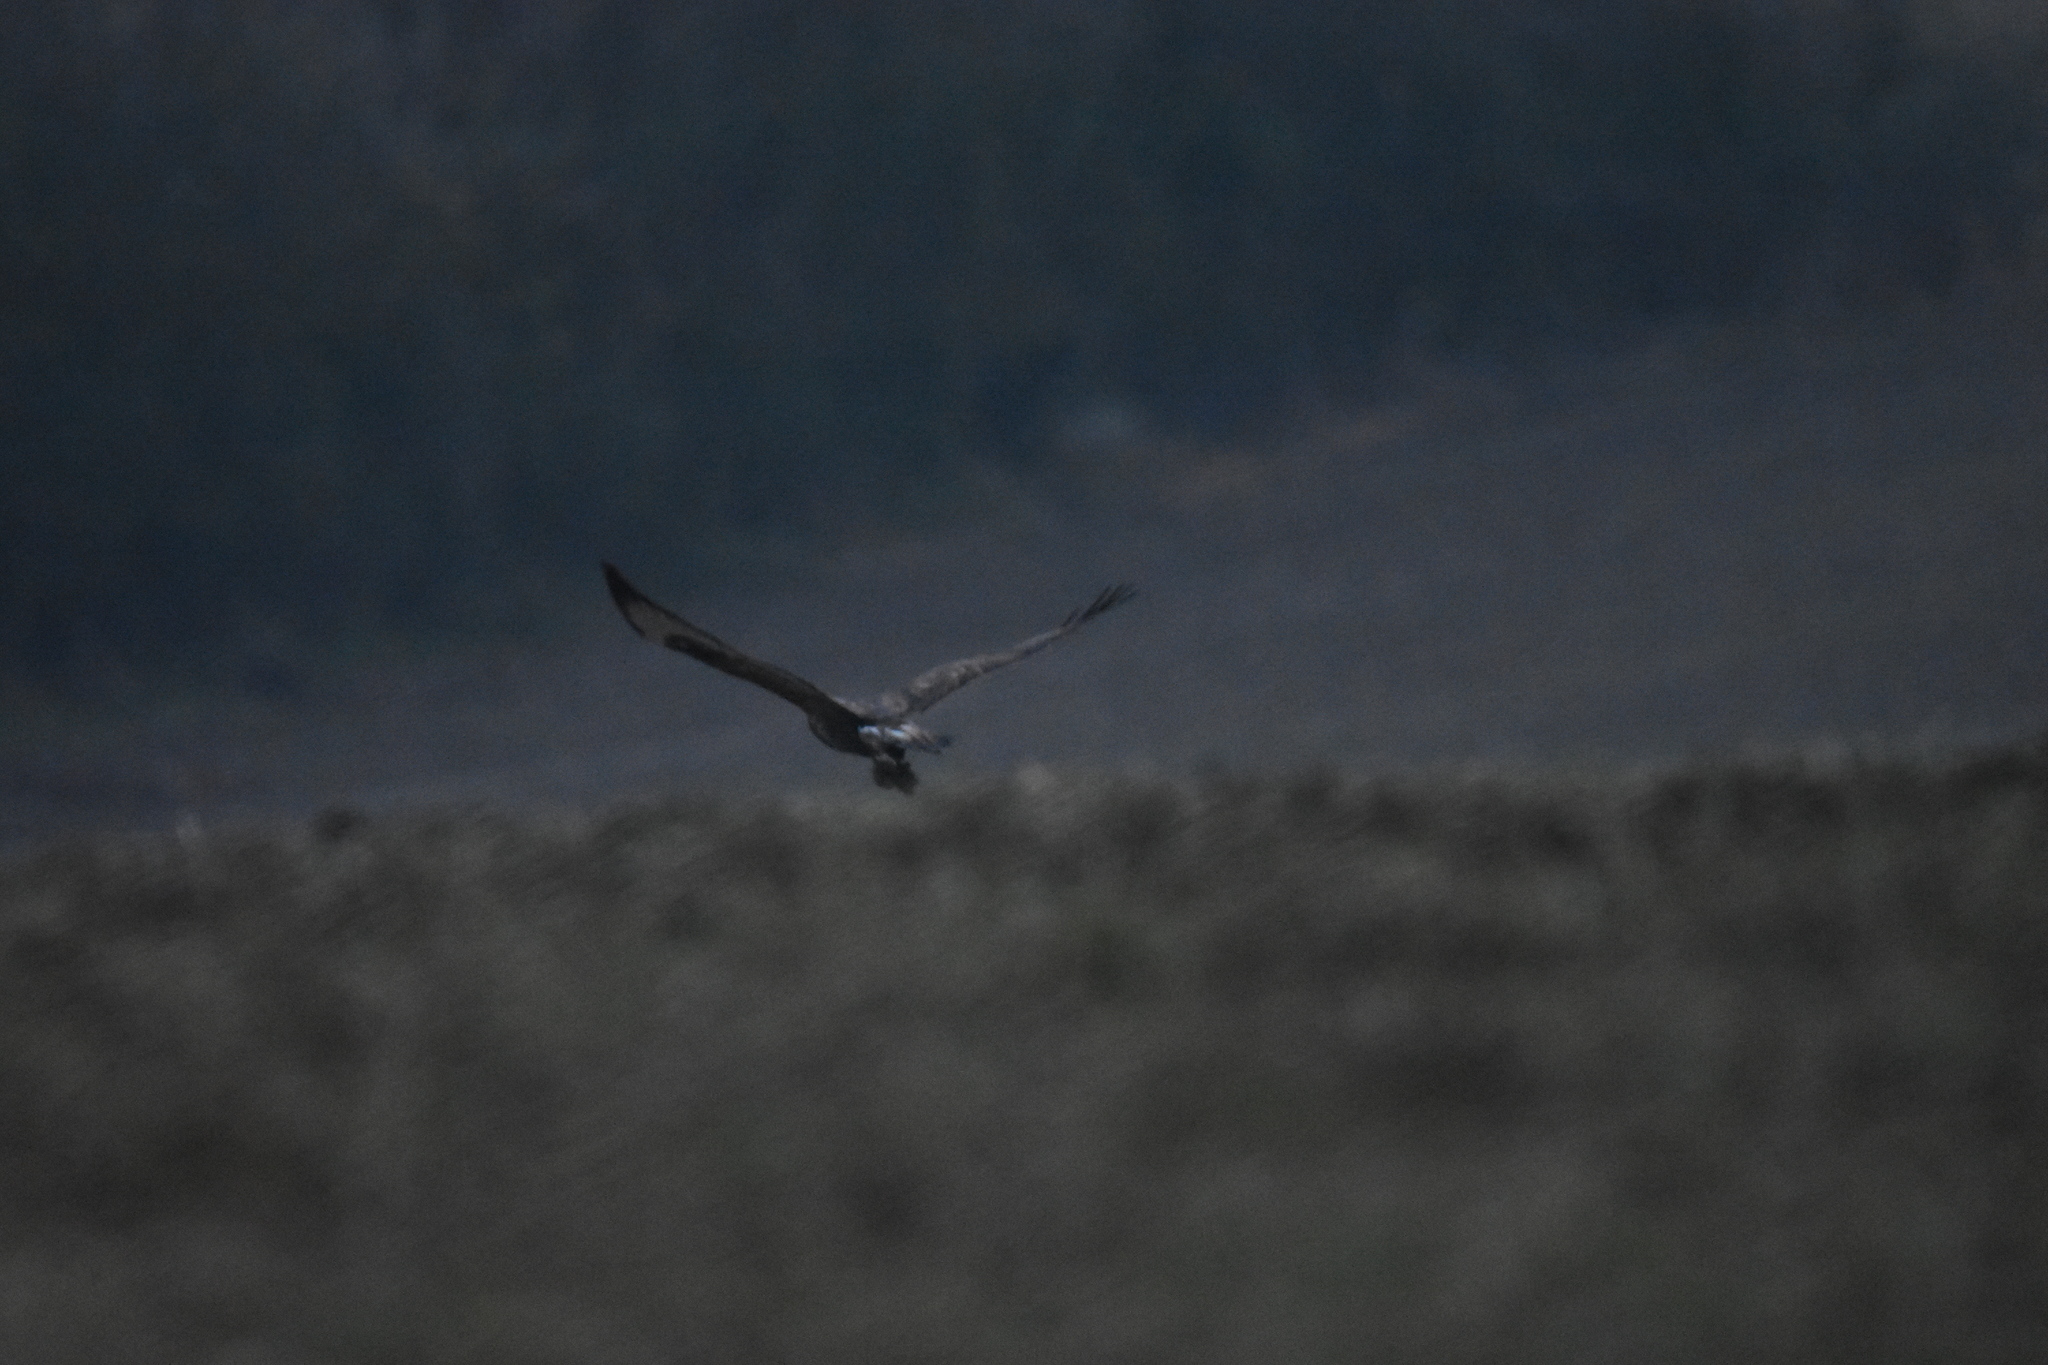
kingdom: Animalia
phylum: Chordata
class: Aves
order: Accipitriformes
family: Accipitridae
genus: Buteo
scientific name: Buteo buteo
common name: Common buzzard
